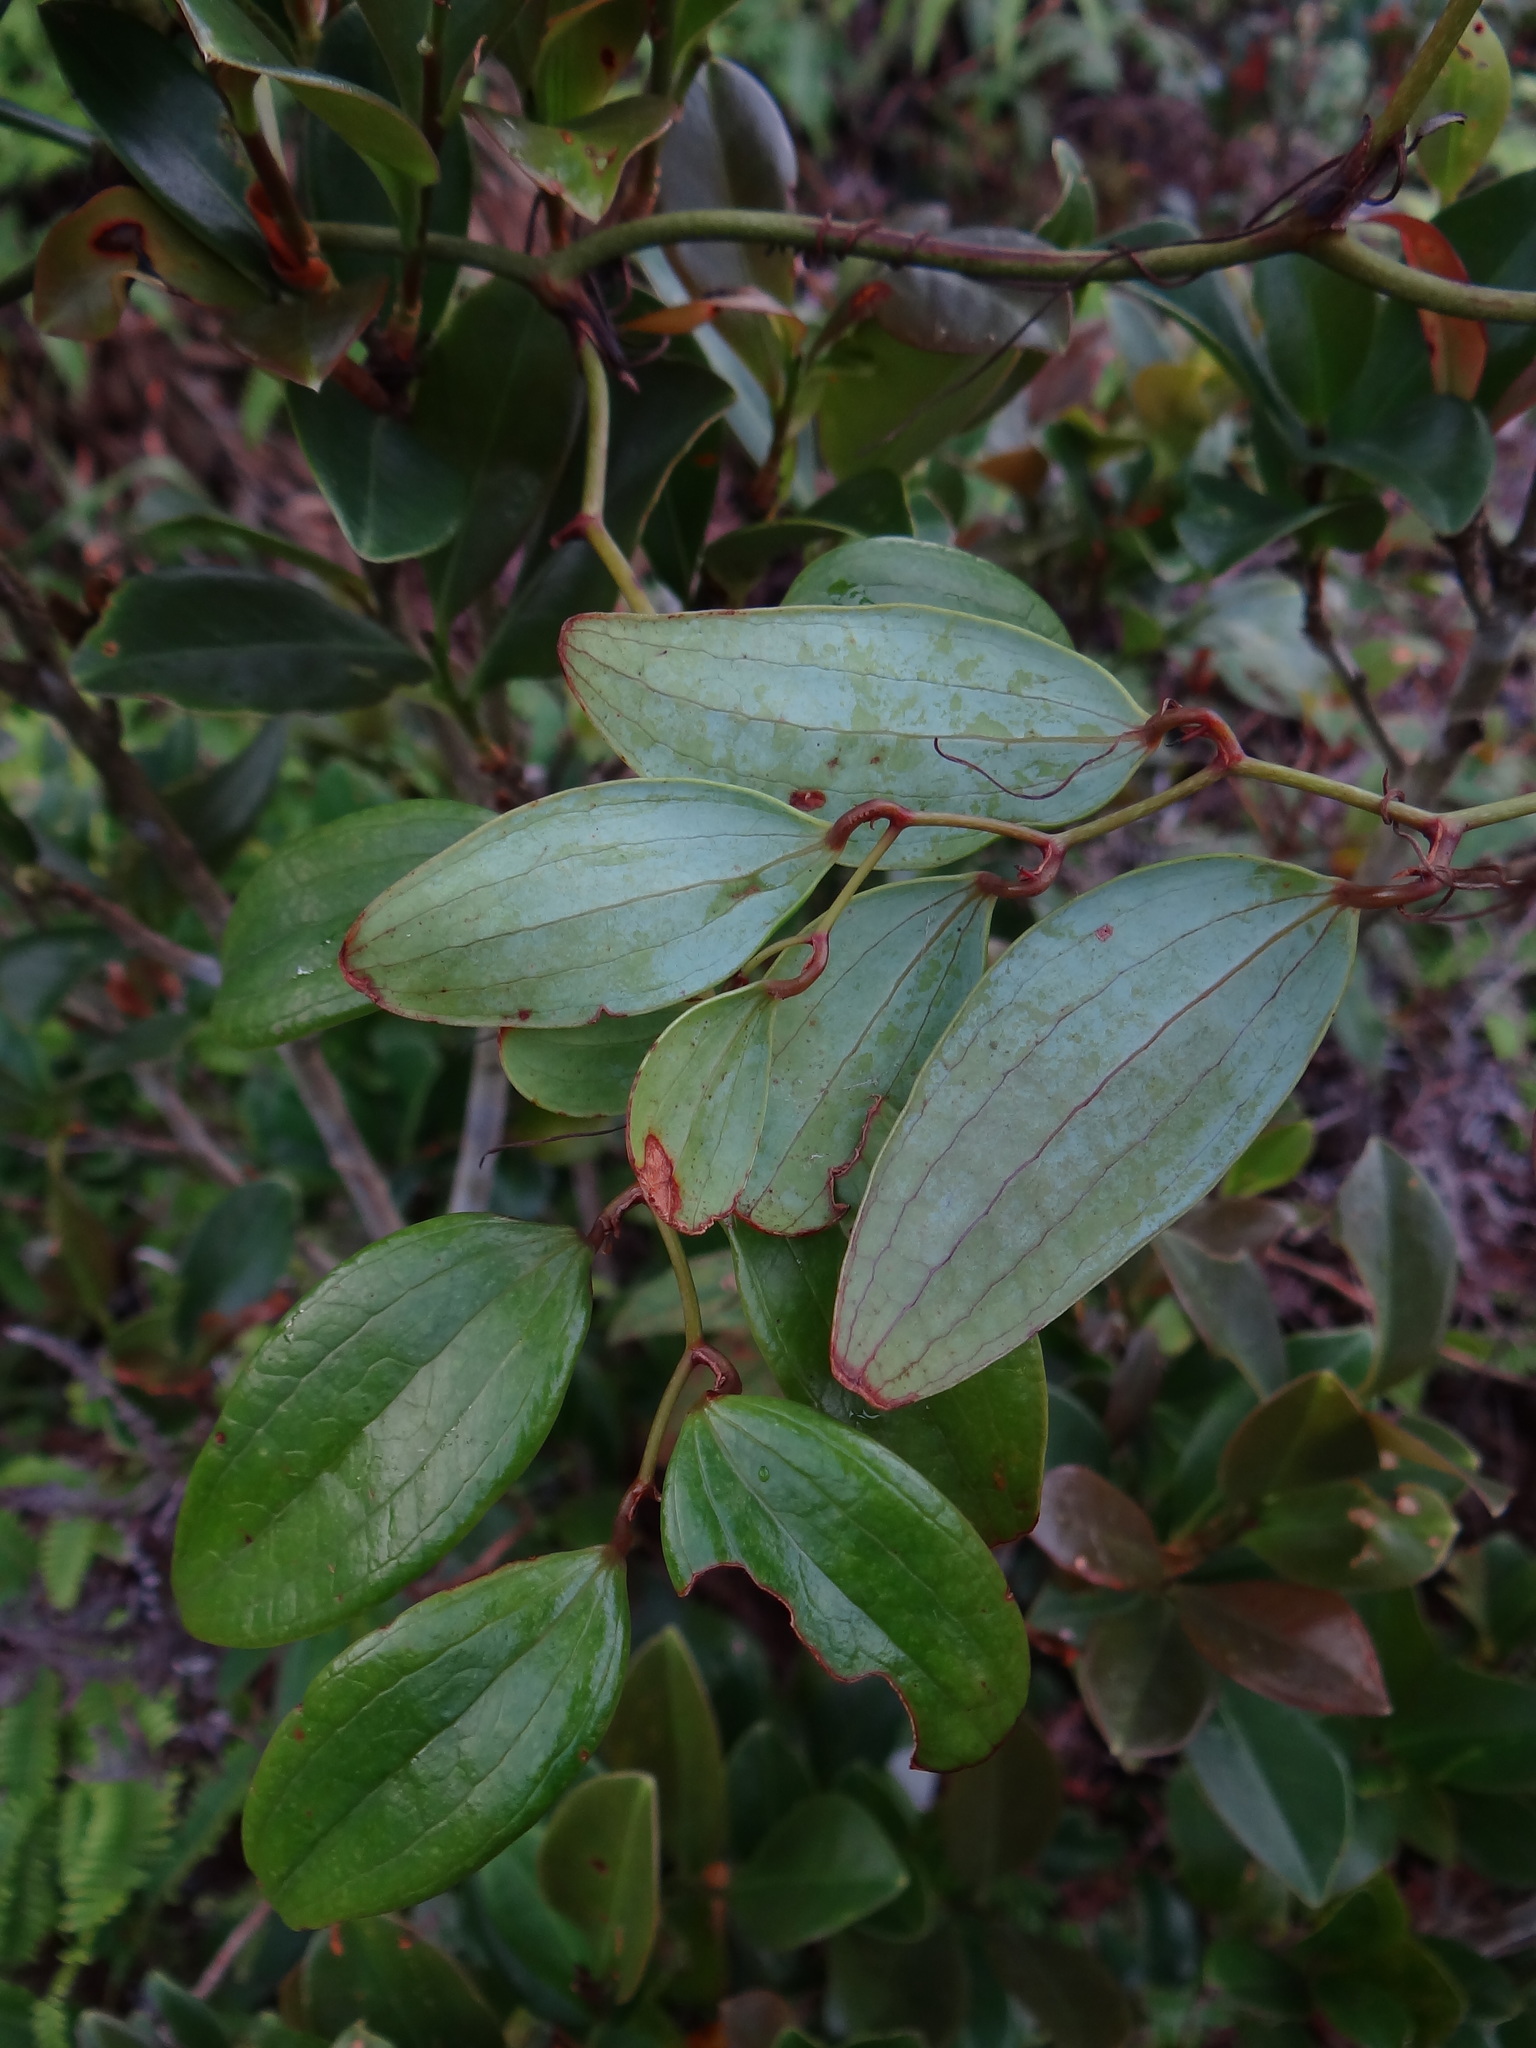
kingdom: Plantae
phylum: Tracheophyta
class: Liliopsida
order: Liliales
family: Smilacaceae
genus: Smilax
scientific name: Smilax corbularia
